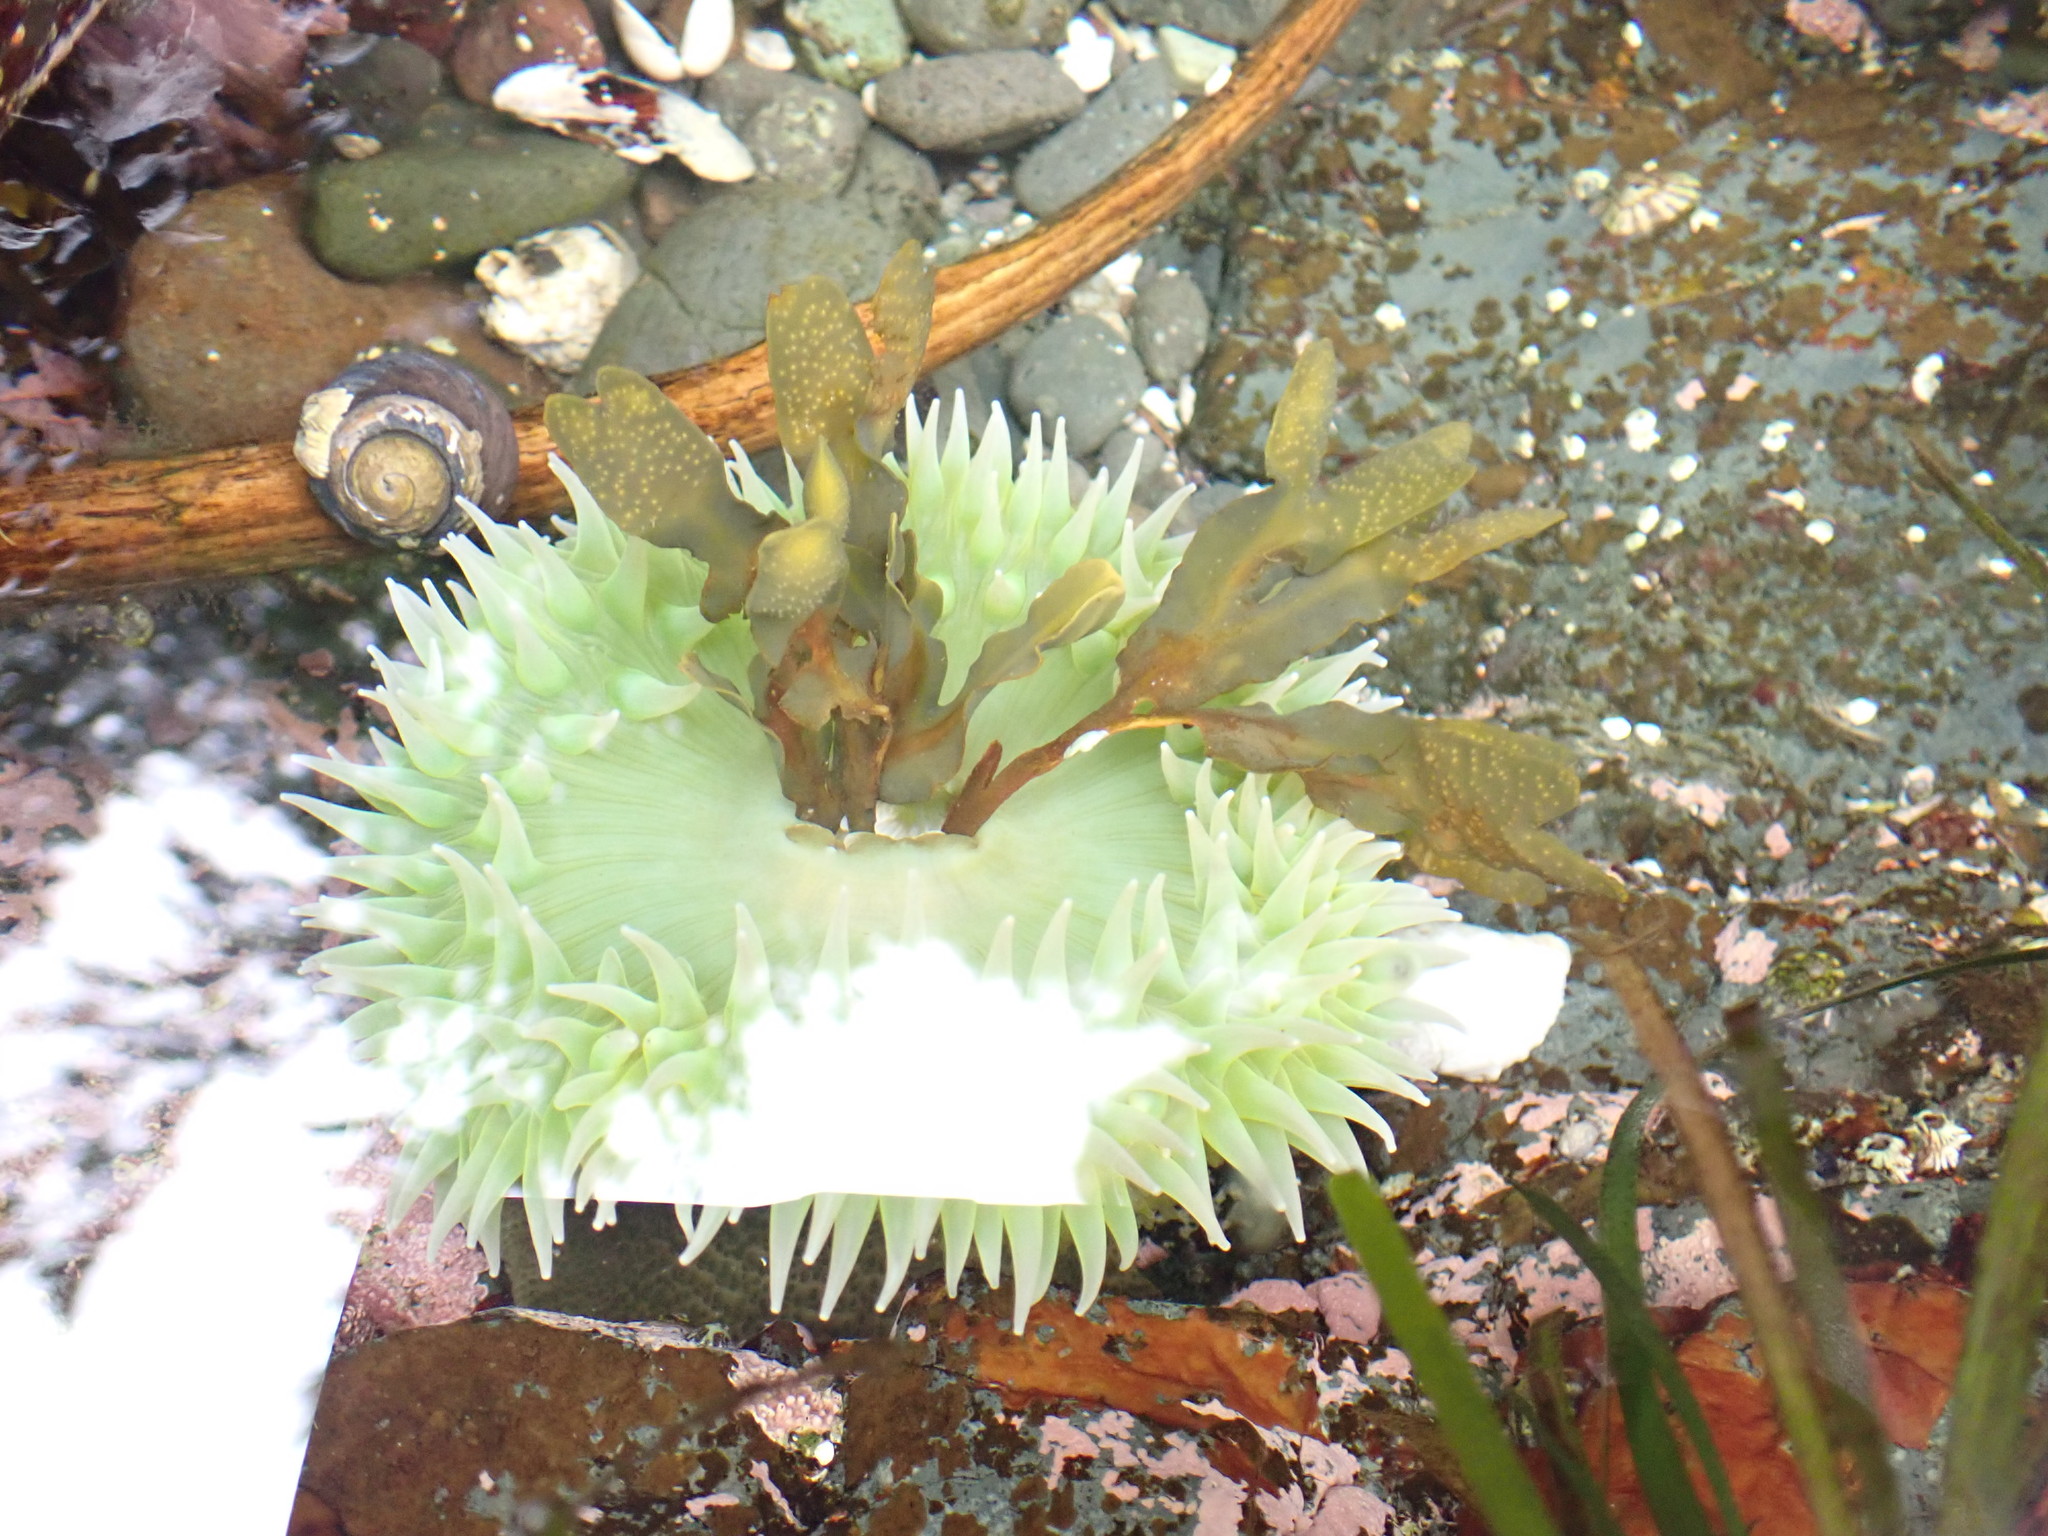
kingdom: Animalia
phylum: Cnidaria
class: Anthozoa
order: Actiniaria
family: Actiniidae
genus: Anthopleura
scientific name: Anthopleura xanthogrammica
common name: Giant green anemone
